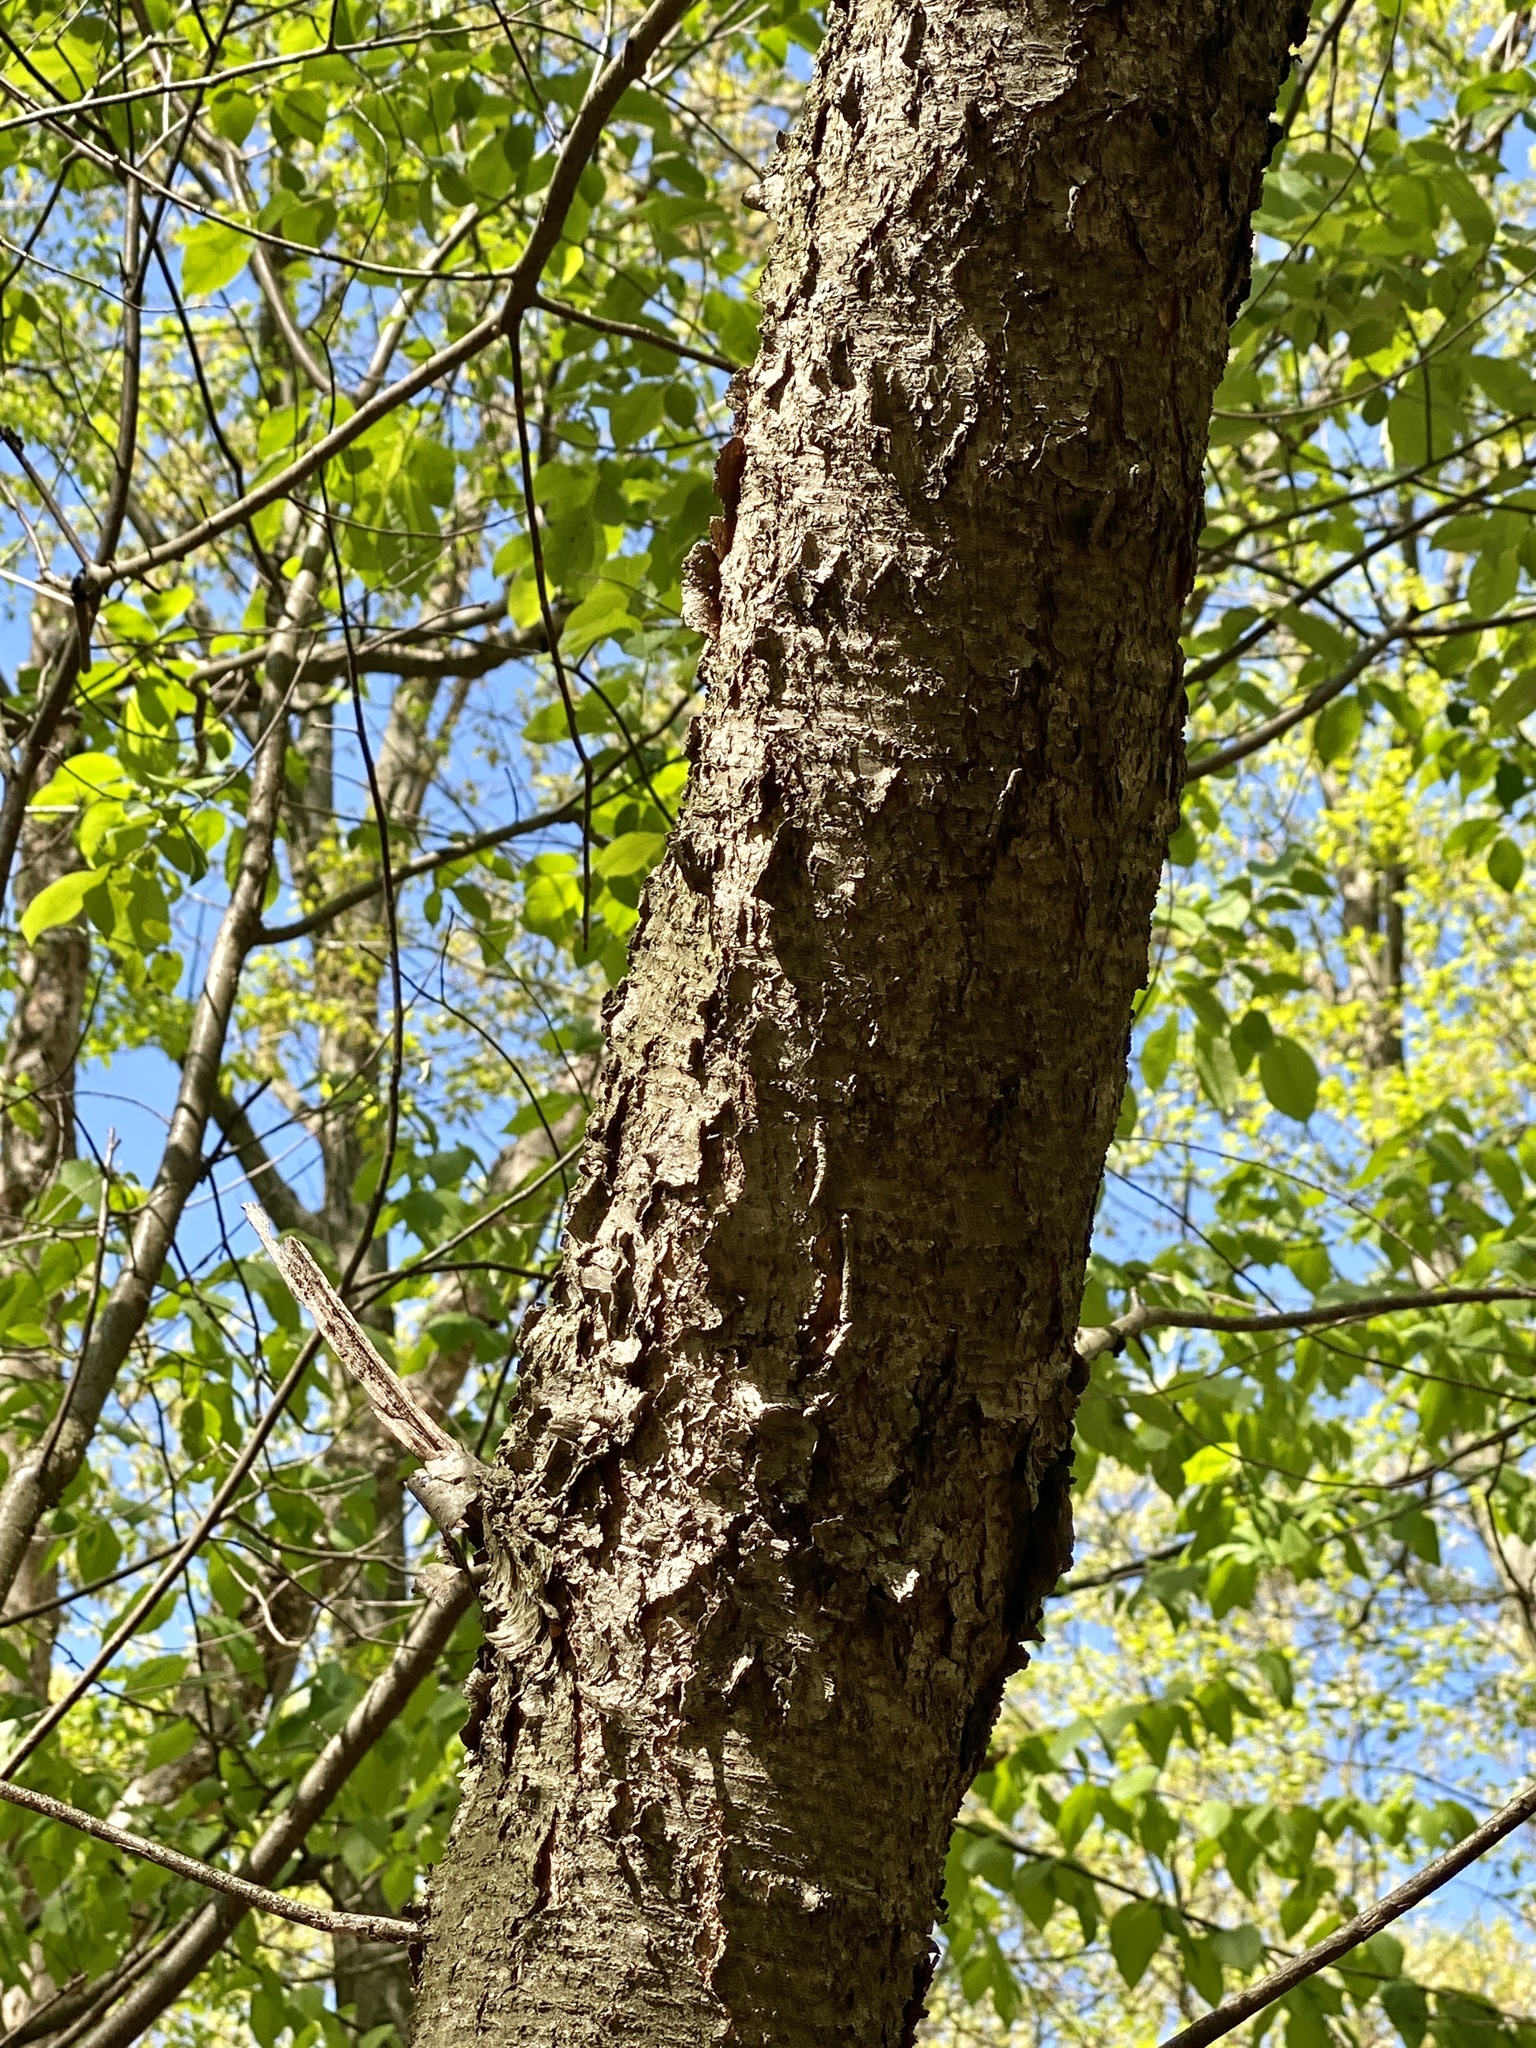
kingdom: Plantae
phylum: Tracheophyta
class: Magnoliopsida
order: Rosales
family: Rosaceae
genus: Prunus
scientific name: Prunus serotina
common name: Black cherry
